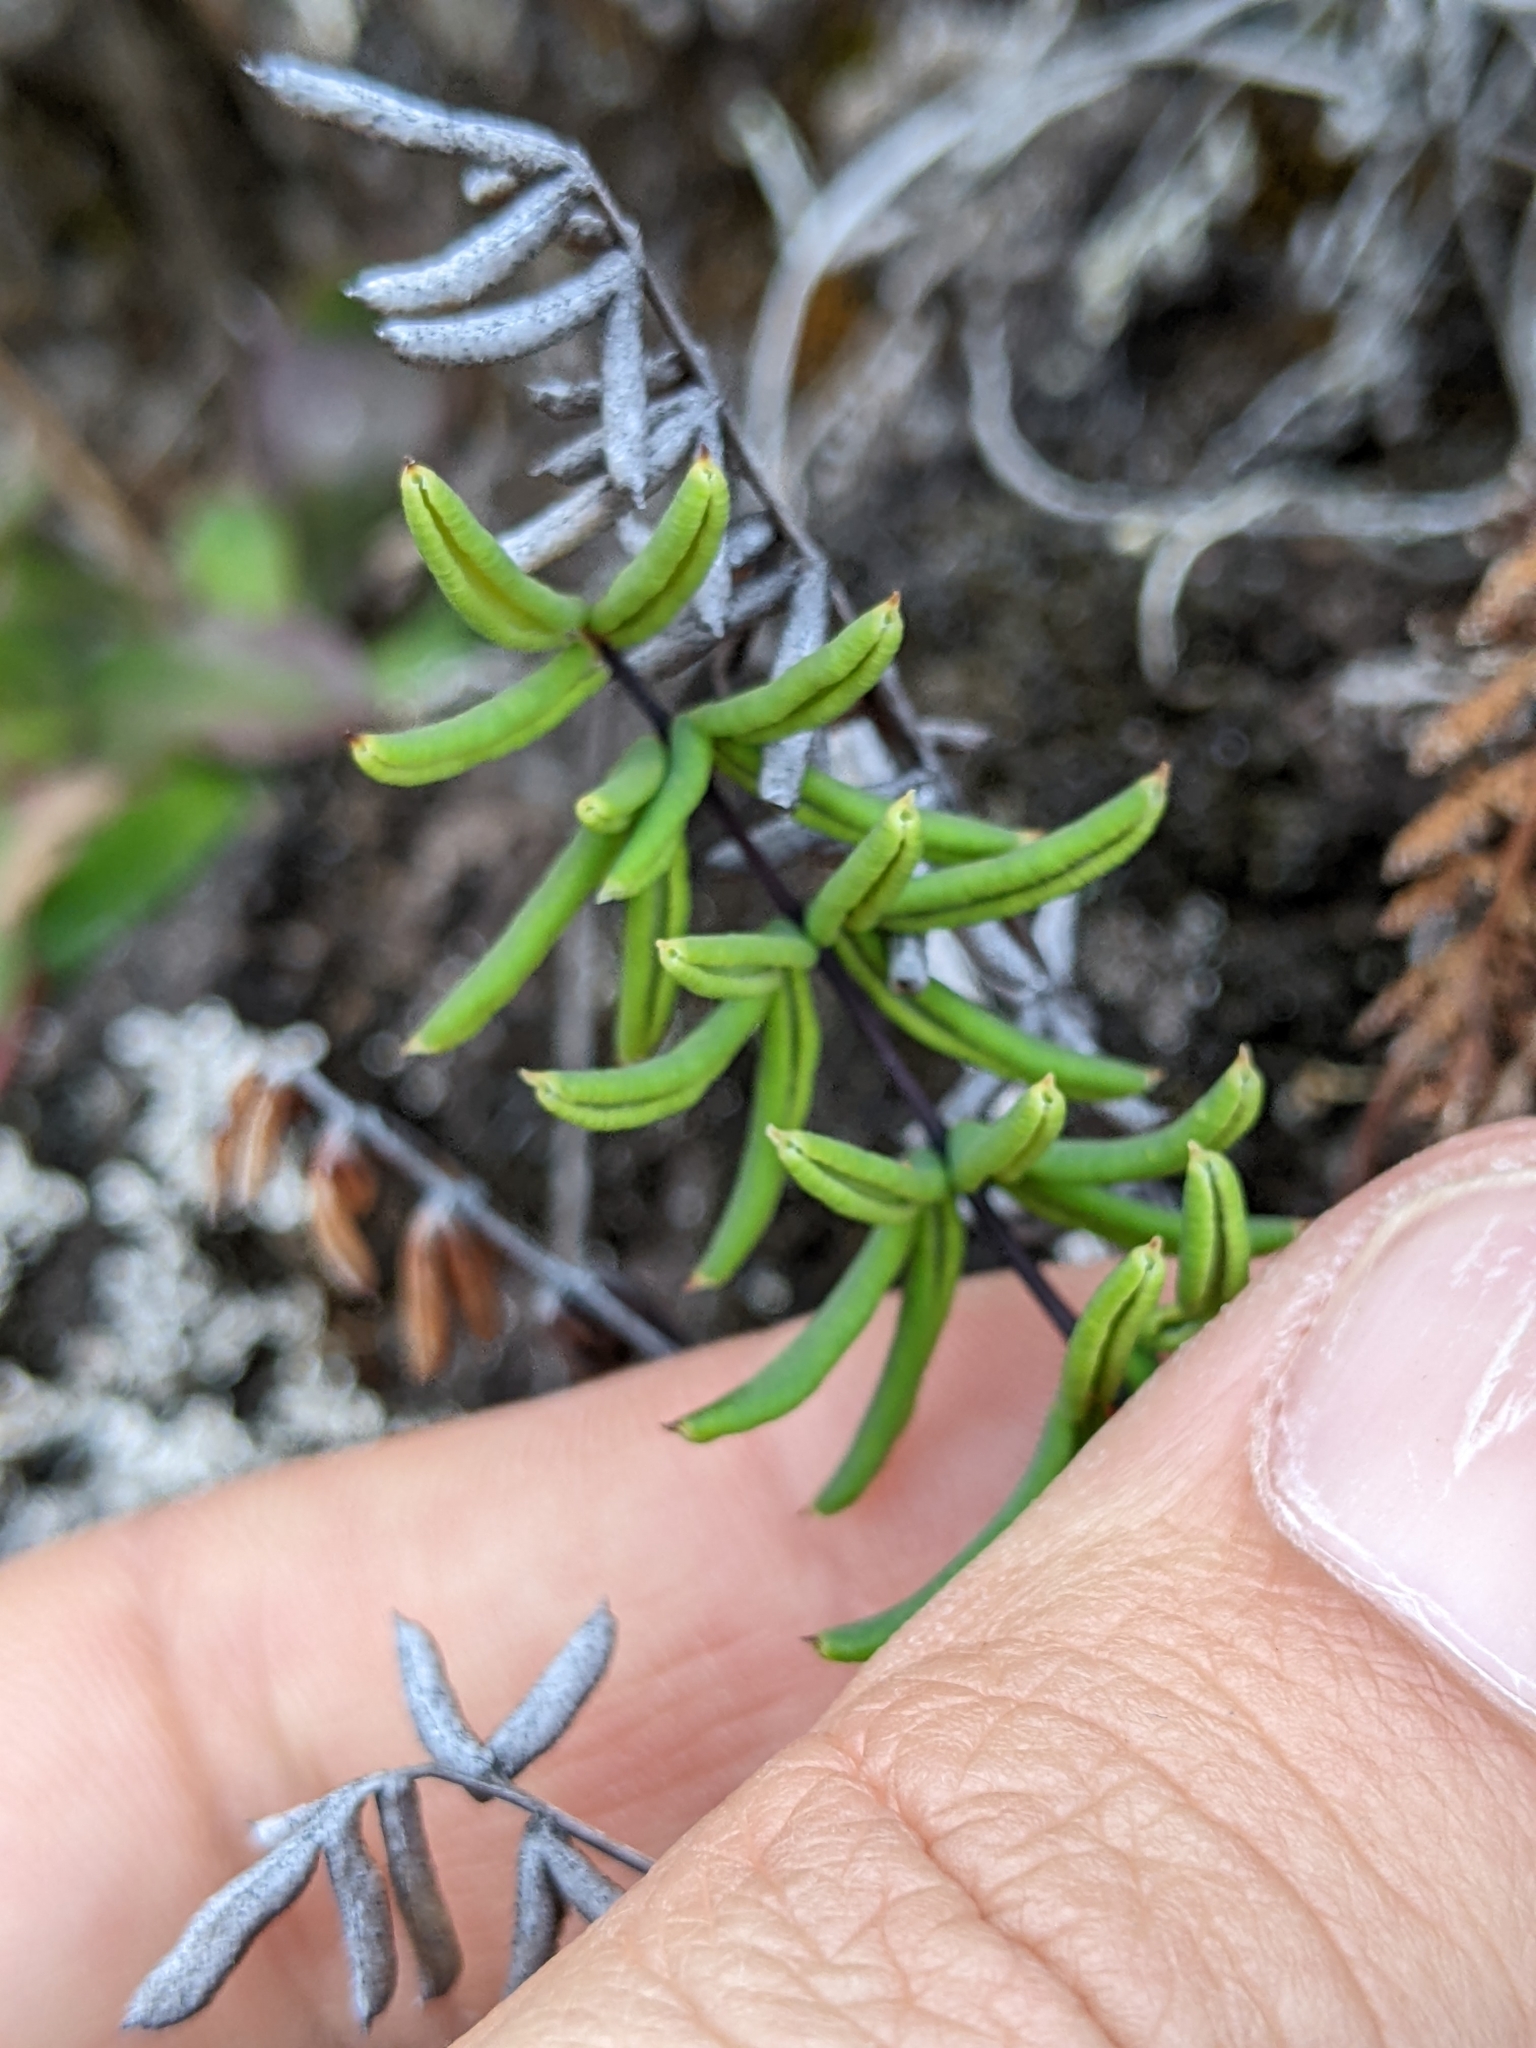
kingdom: Plantae
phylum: Tracheophyta
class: Polypodiopsida
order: Polypodiales
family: Pteridaceae
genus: Pellaea
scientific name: Pellaea ternifolia
